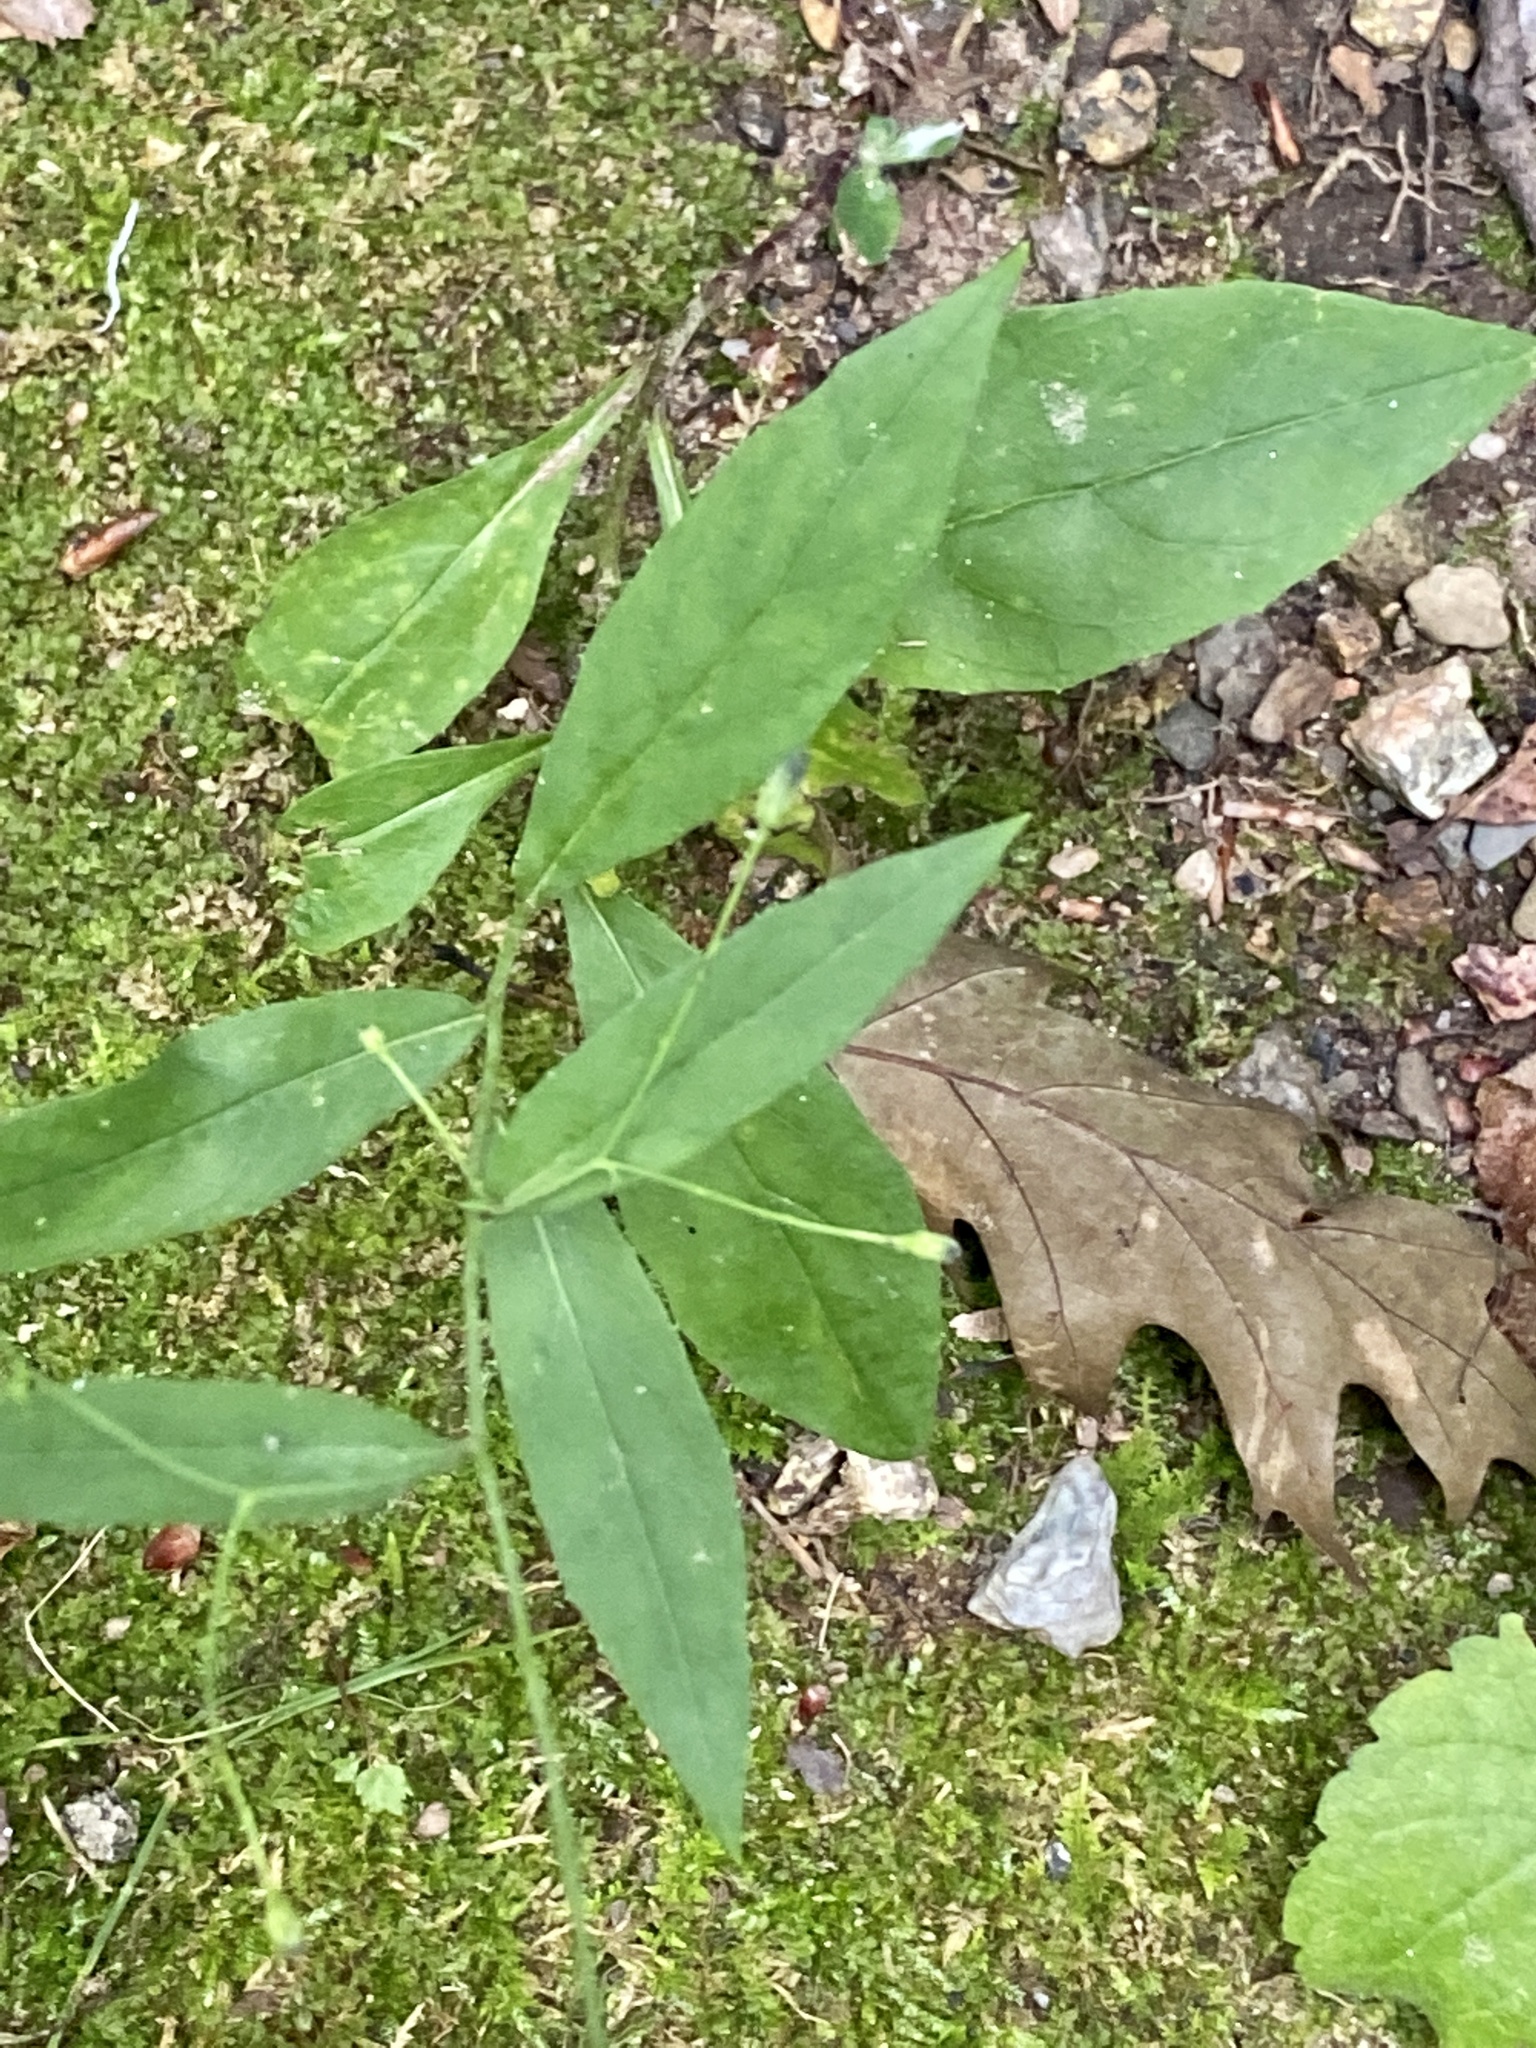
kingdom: Plantae
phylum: Tracheophyta
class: Magnoliopsida
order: Asterales
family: Asteraceae
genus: Hieracium
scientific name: Hieracium paniculatum
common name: Allegheny hawkweed
